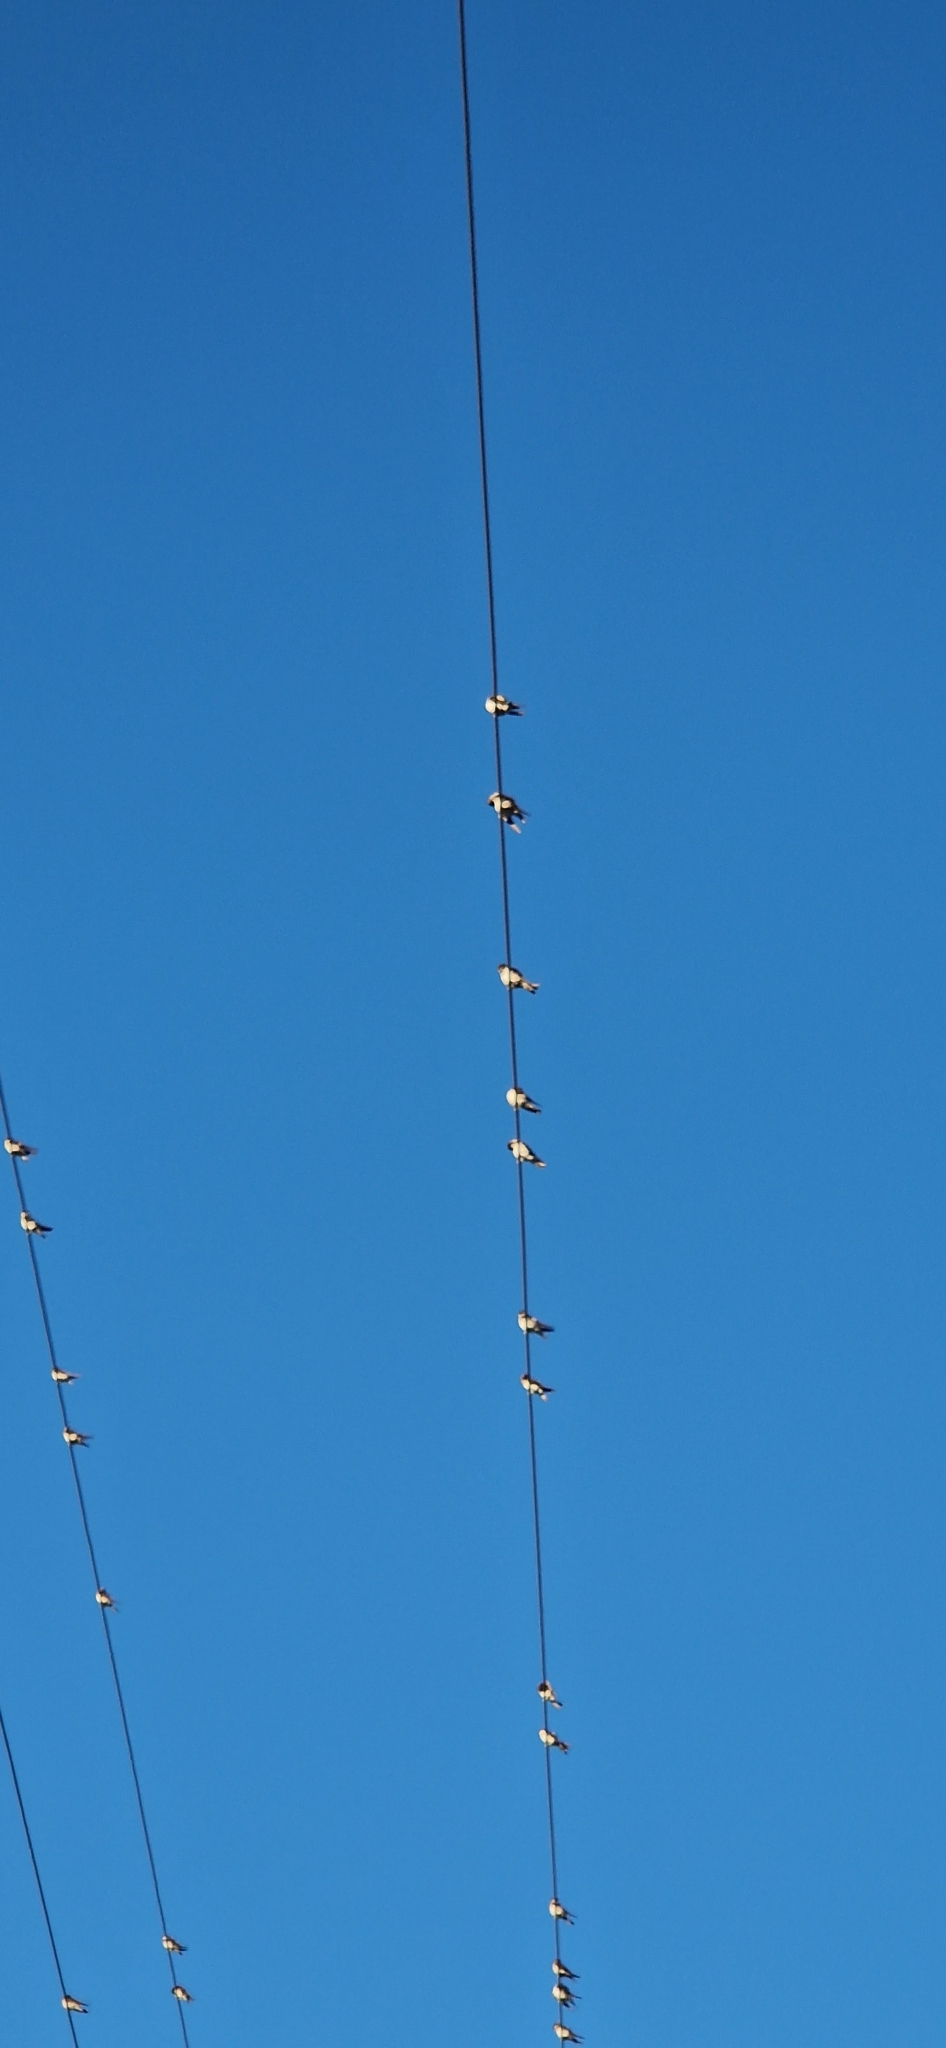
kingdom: Animalia
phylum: Chordata
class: Aves
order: Passeriformes
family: Hirundinidae
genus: Hirundo
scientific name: Hirundo rustica
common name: Barn swallow
